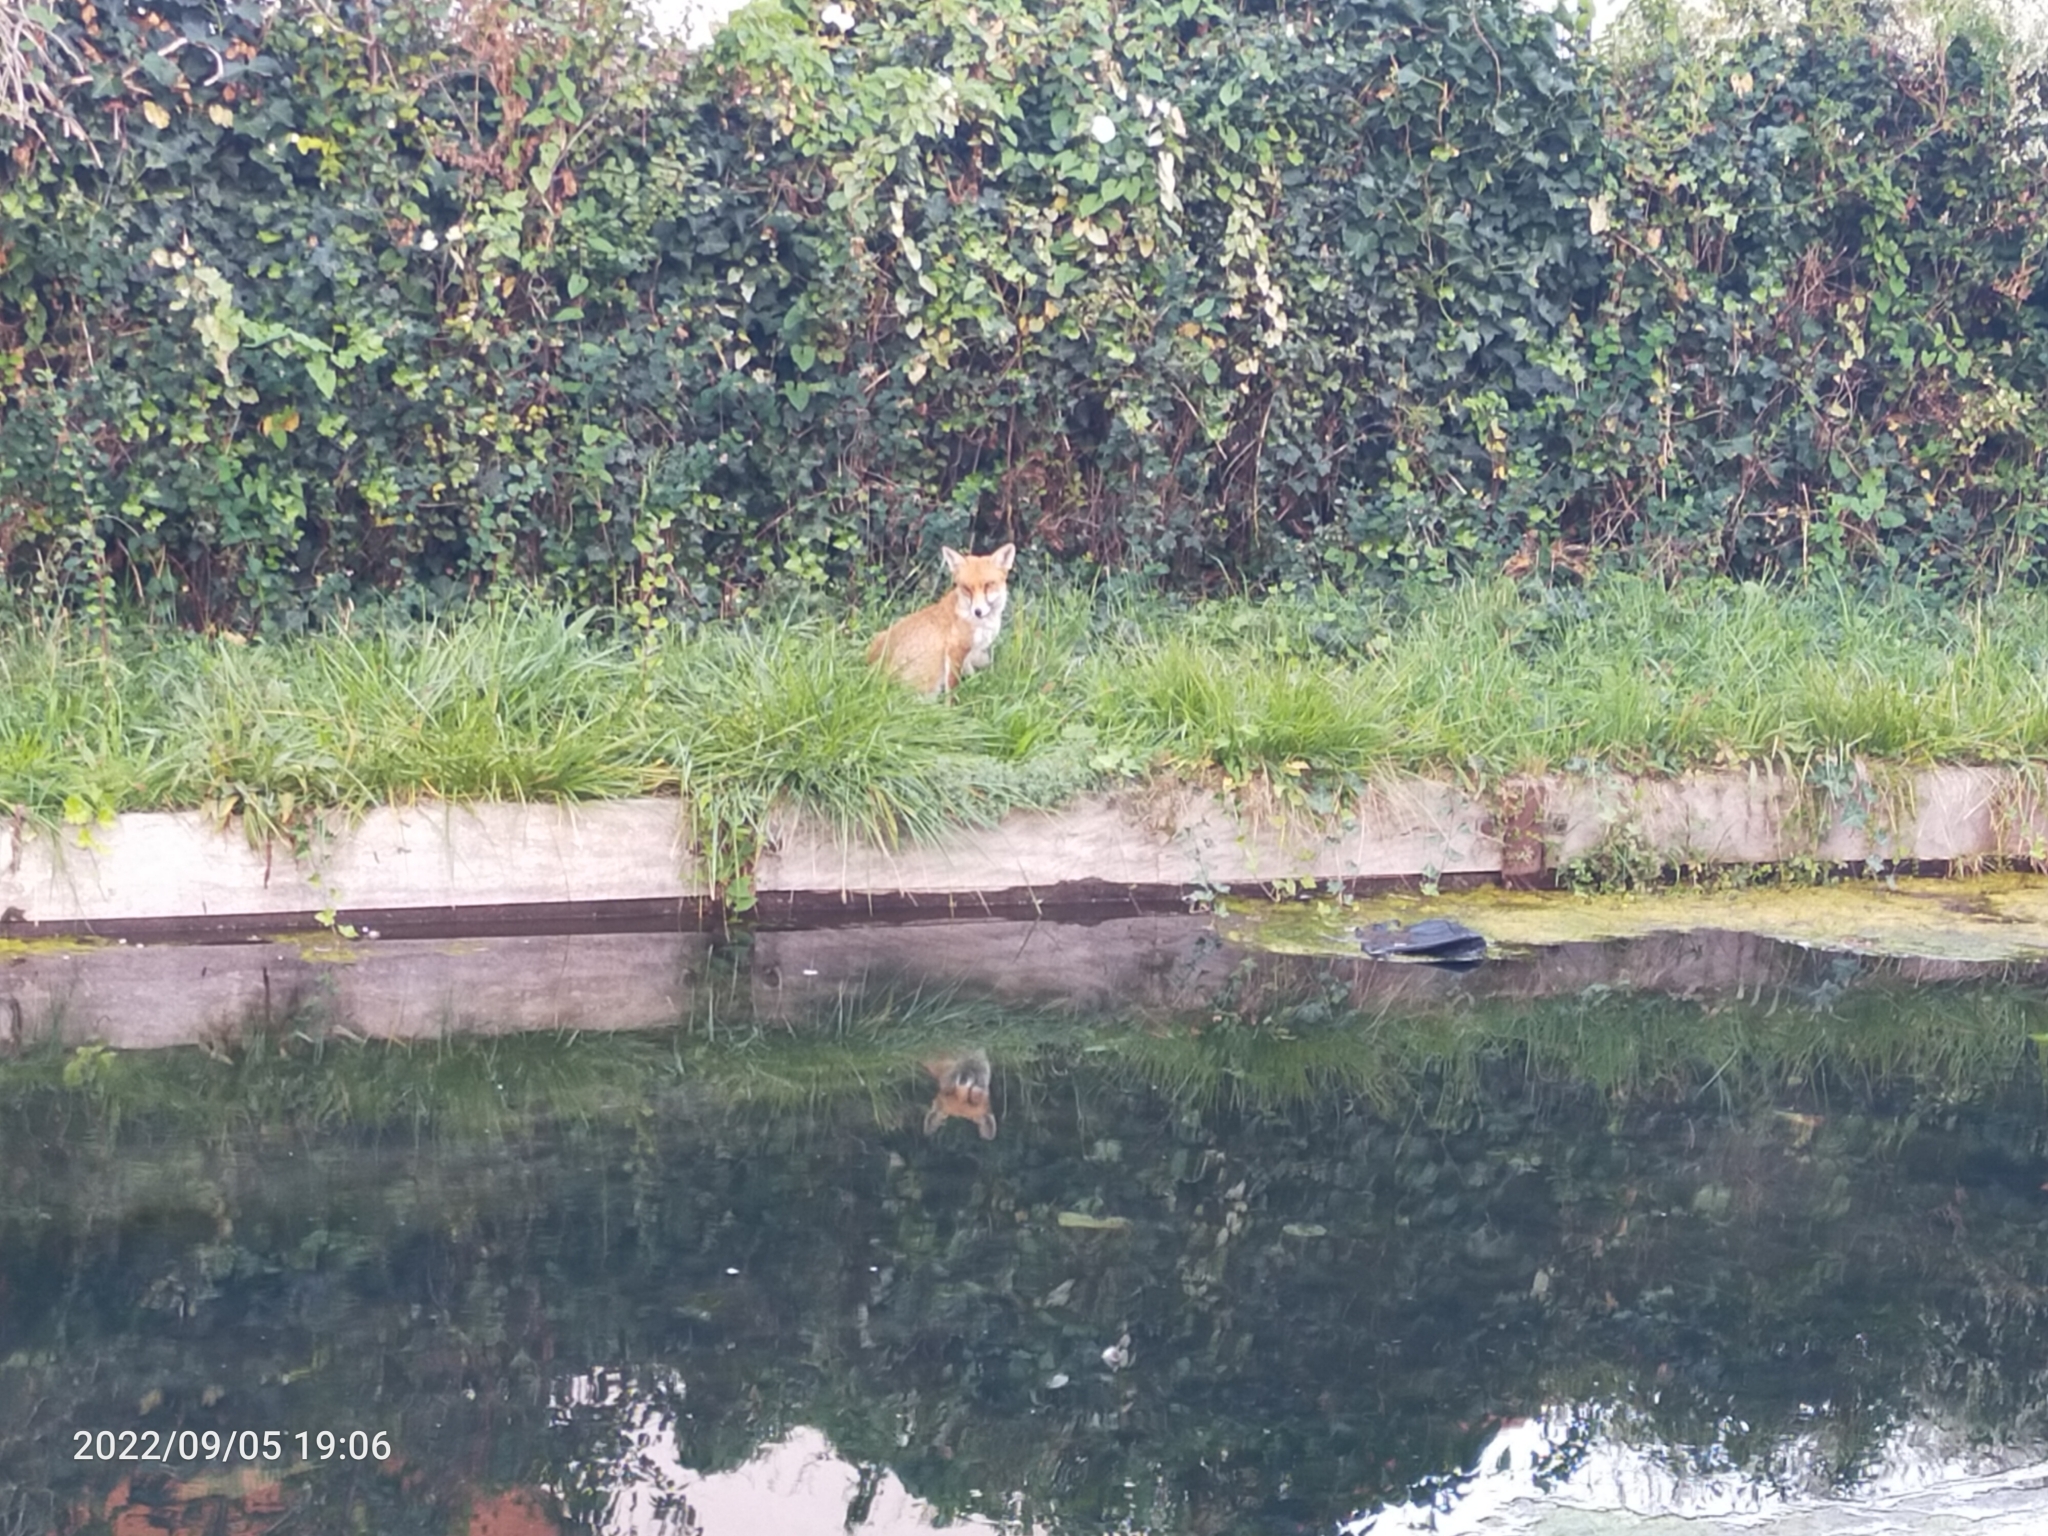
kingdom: Animalia
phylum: Chordata
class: Mammalia
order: Carnivora
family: Canidae
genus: Vulpes
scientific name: Vulpes vulpes
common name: Red fox
